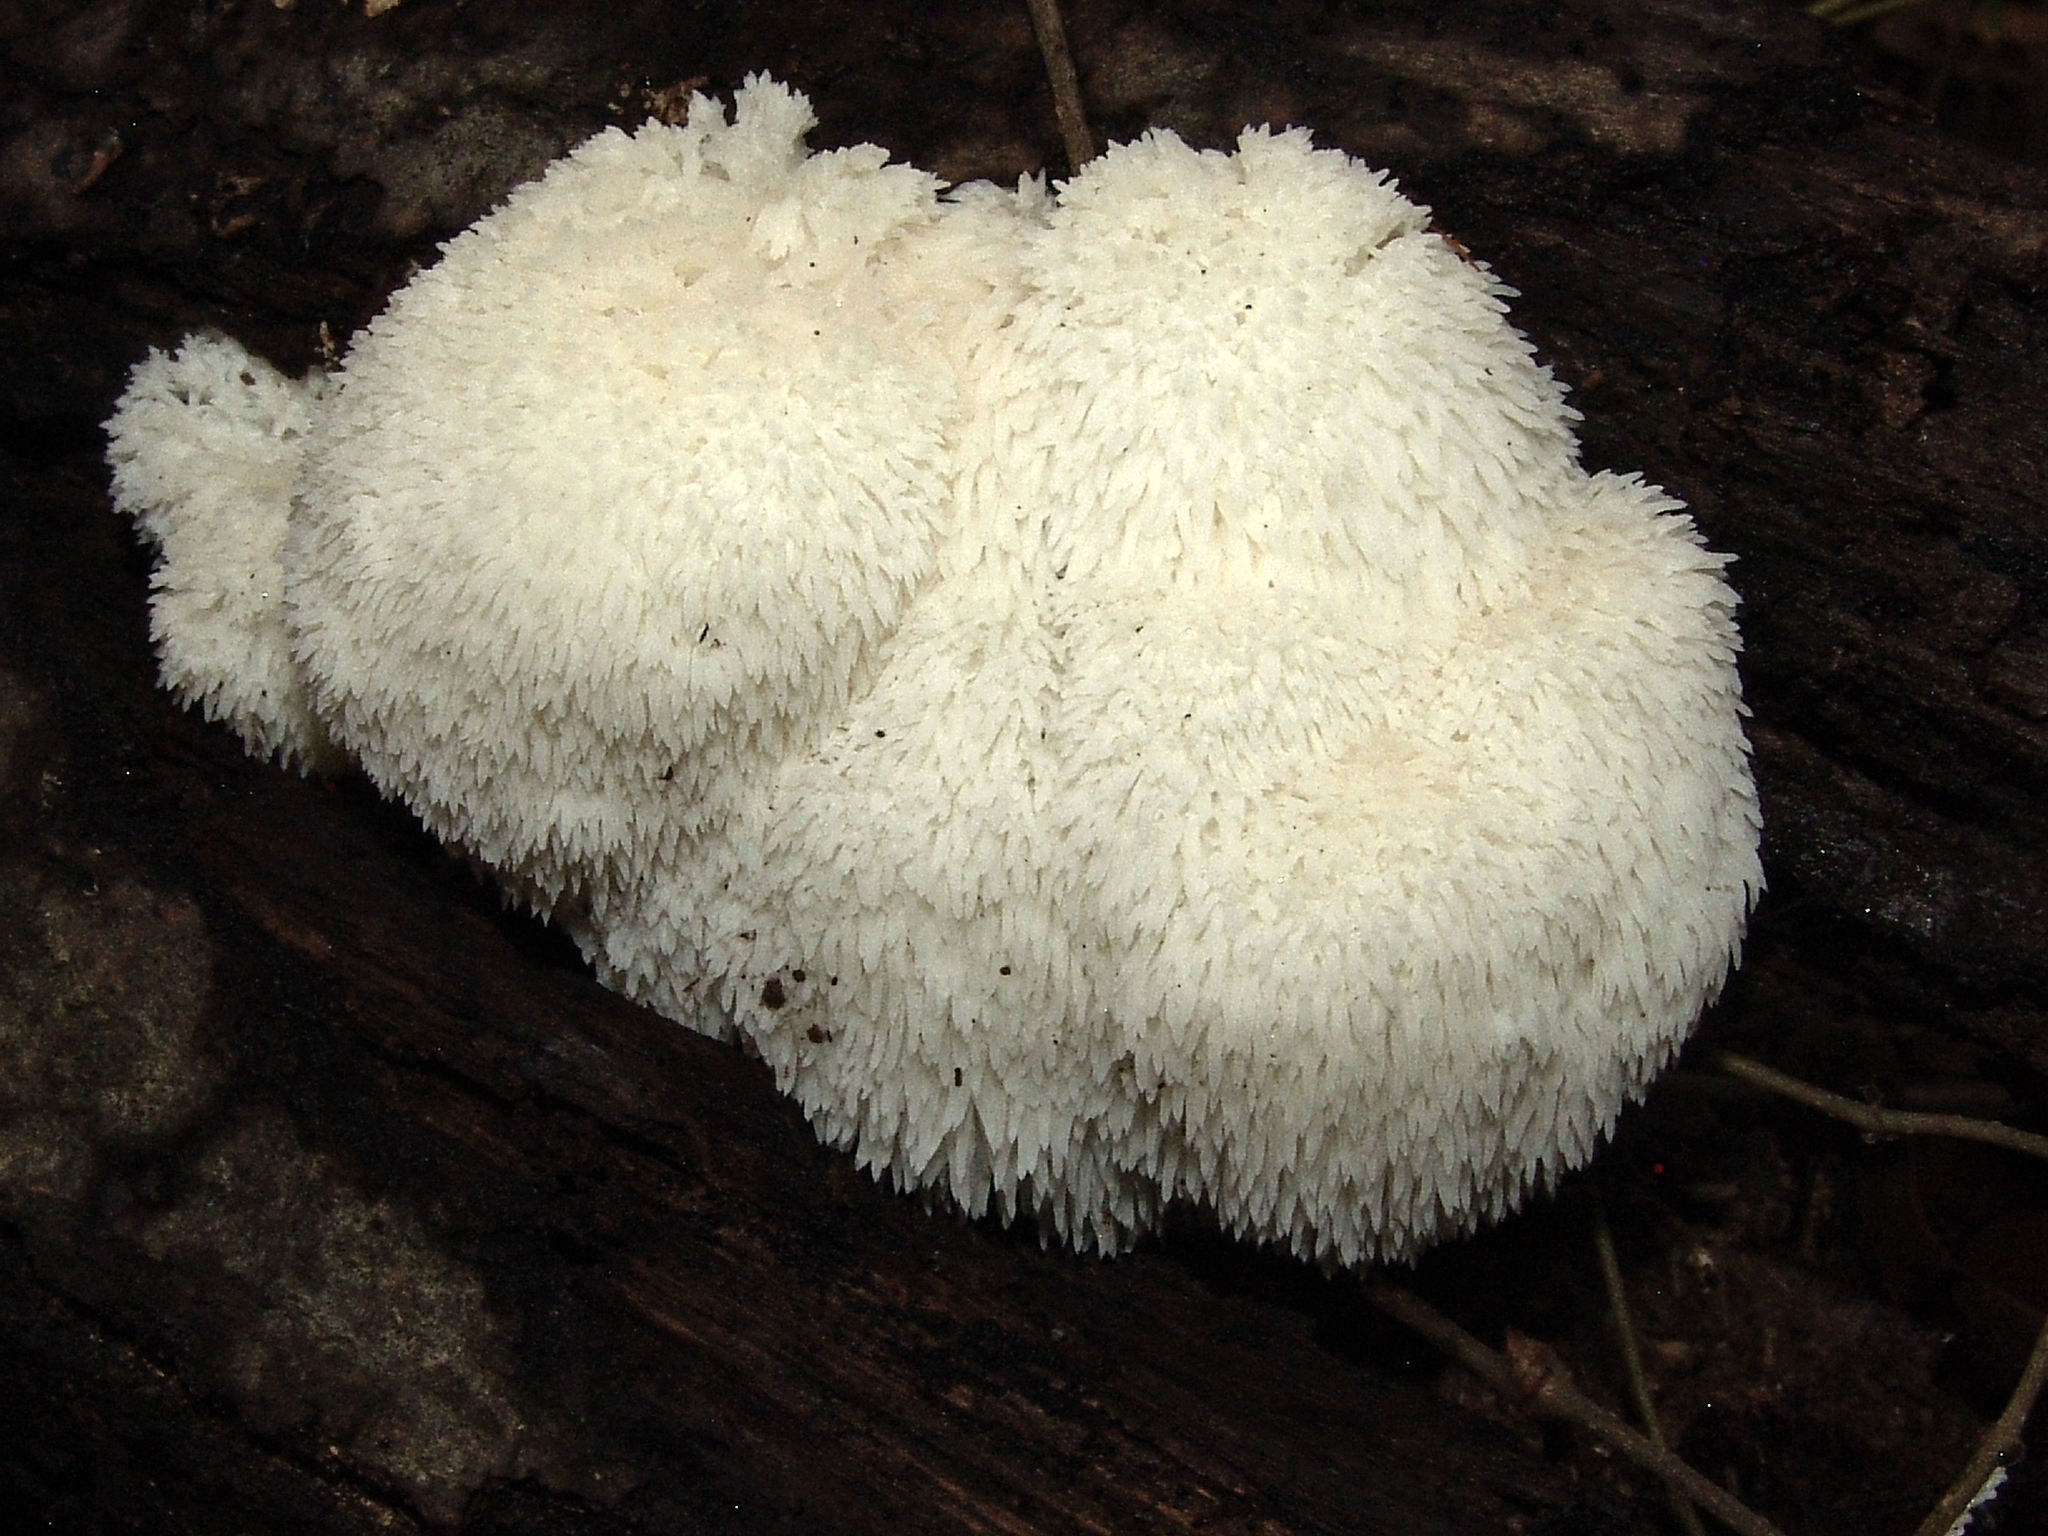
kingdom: Fungi
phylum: Basidiomycota
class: Agaricomycetes
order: Russulales
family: Hericiaceae
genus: Hericium
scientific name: Hericium erinaceus
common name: Bearded tooth
